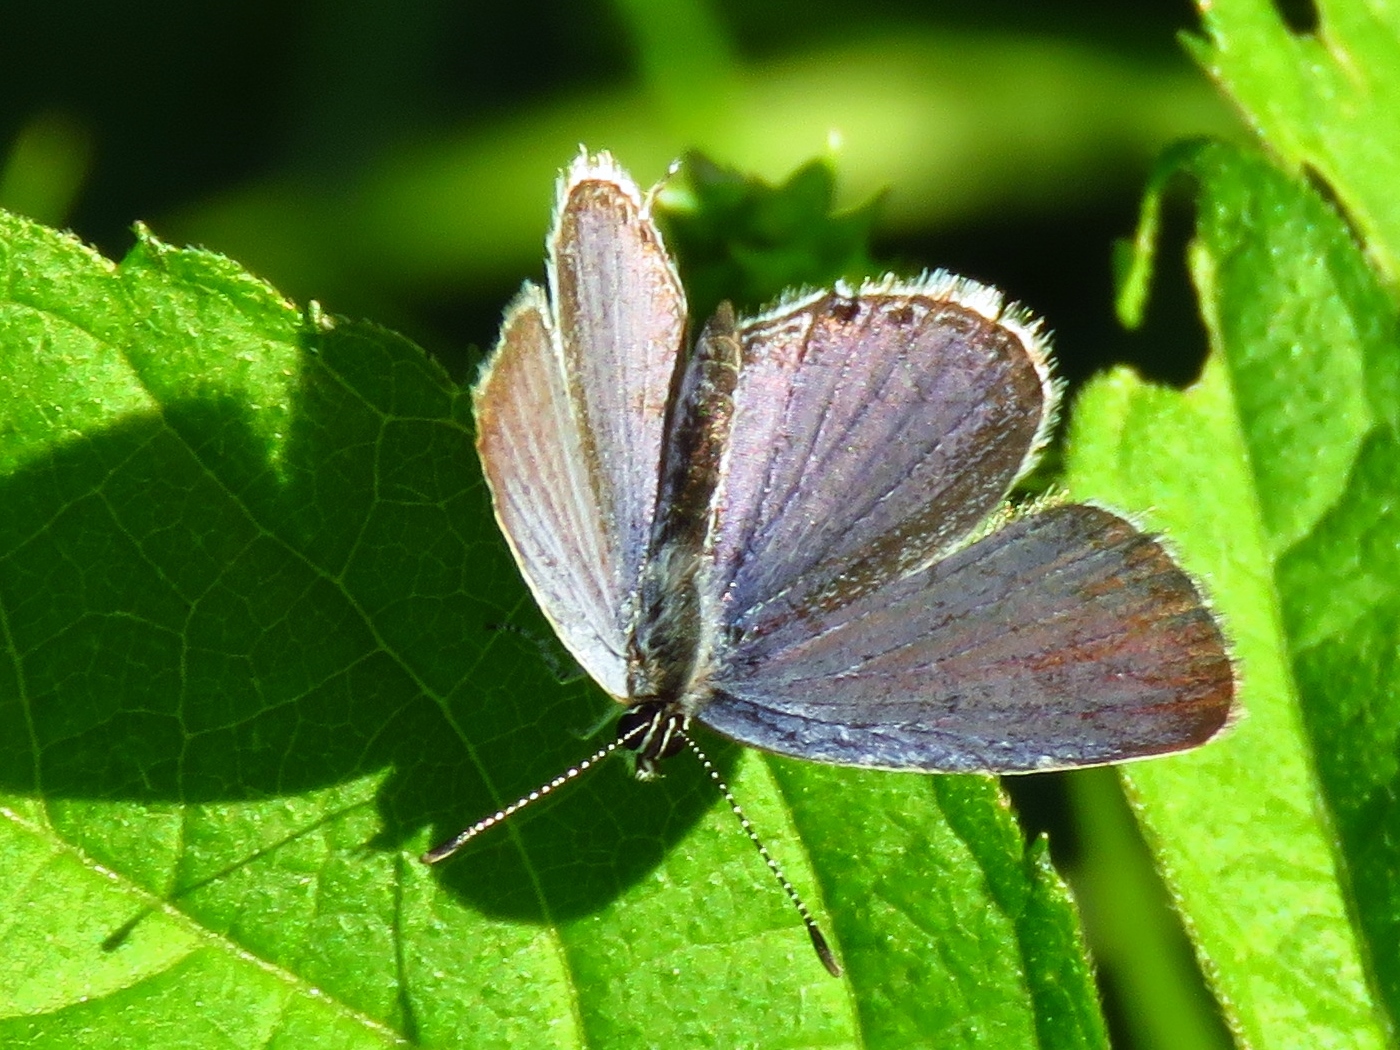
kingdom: Animalia
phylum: Arthropoda
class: Insecta
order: Lepidoptera
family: Lycaenidae
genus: Echinargus
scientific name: Echinargus isola
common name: Reakirt's blue
